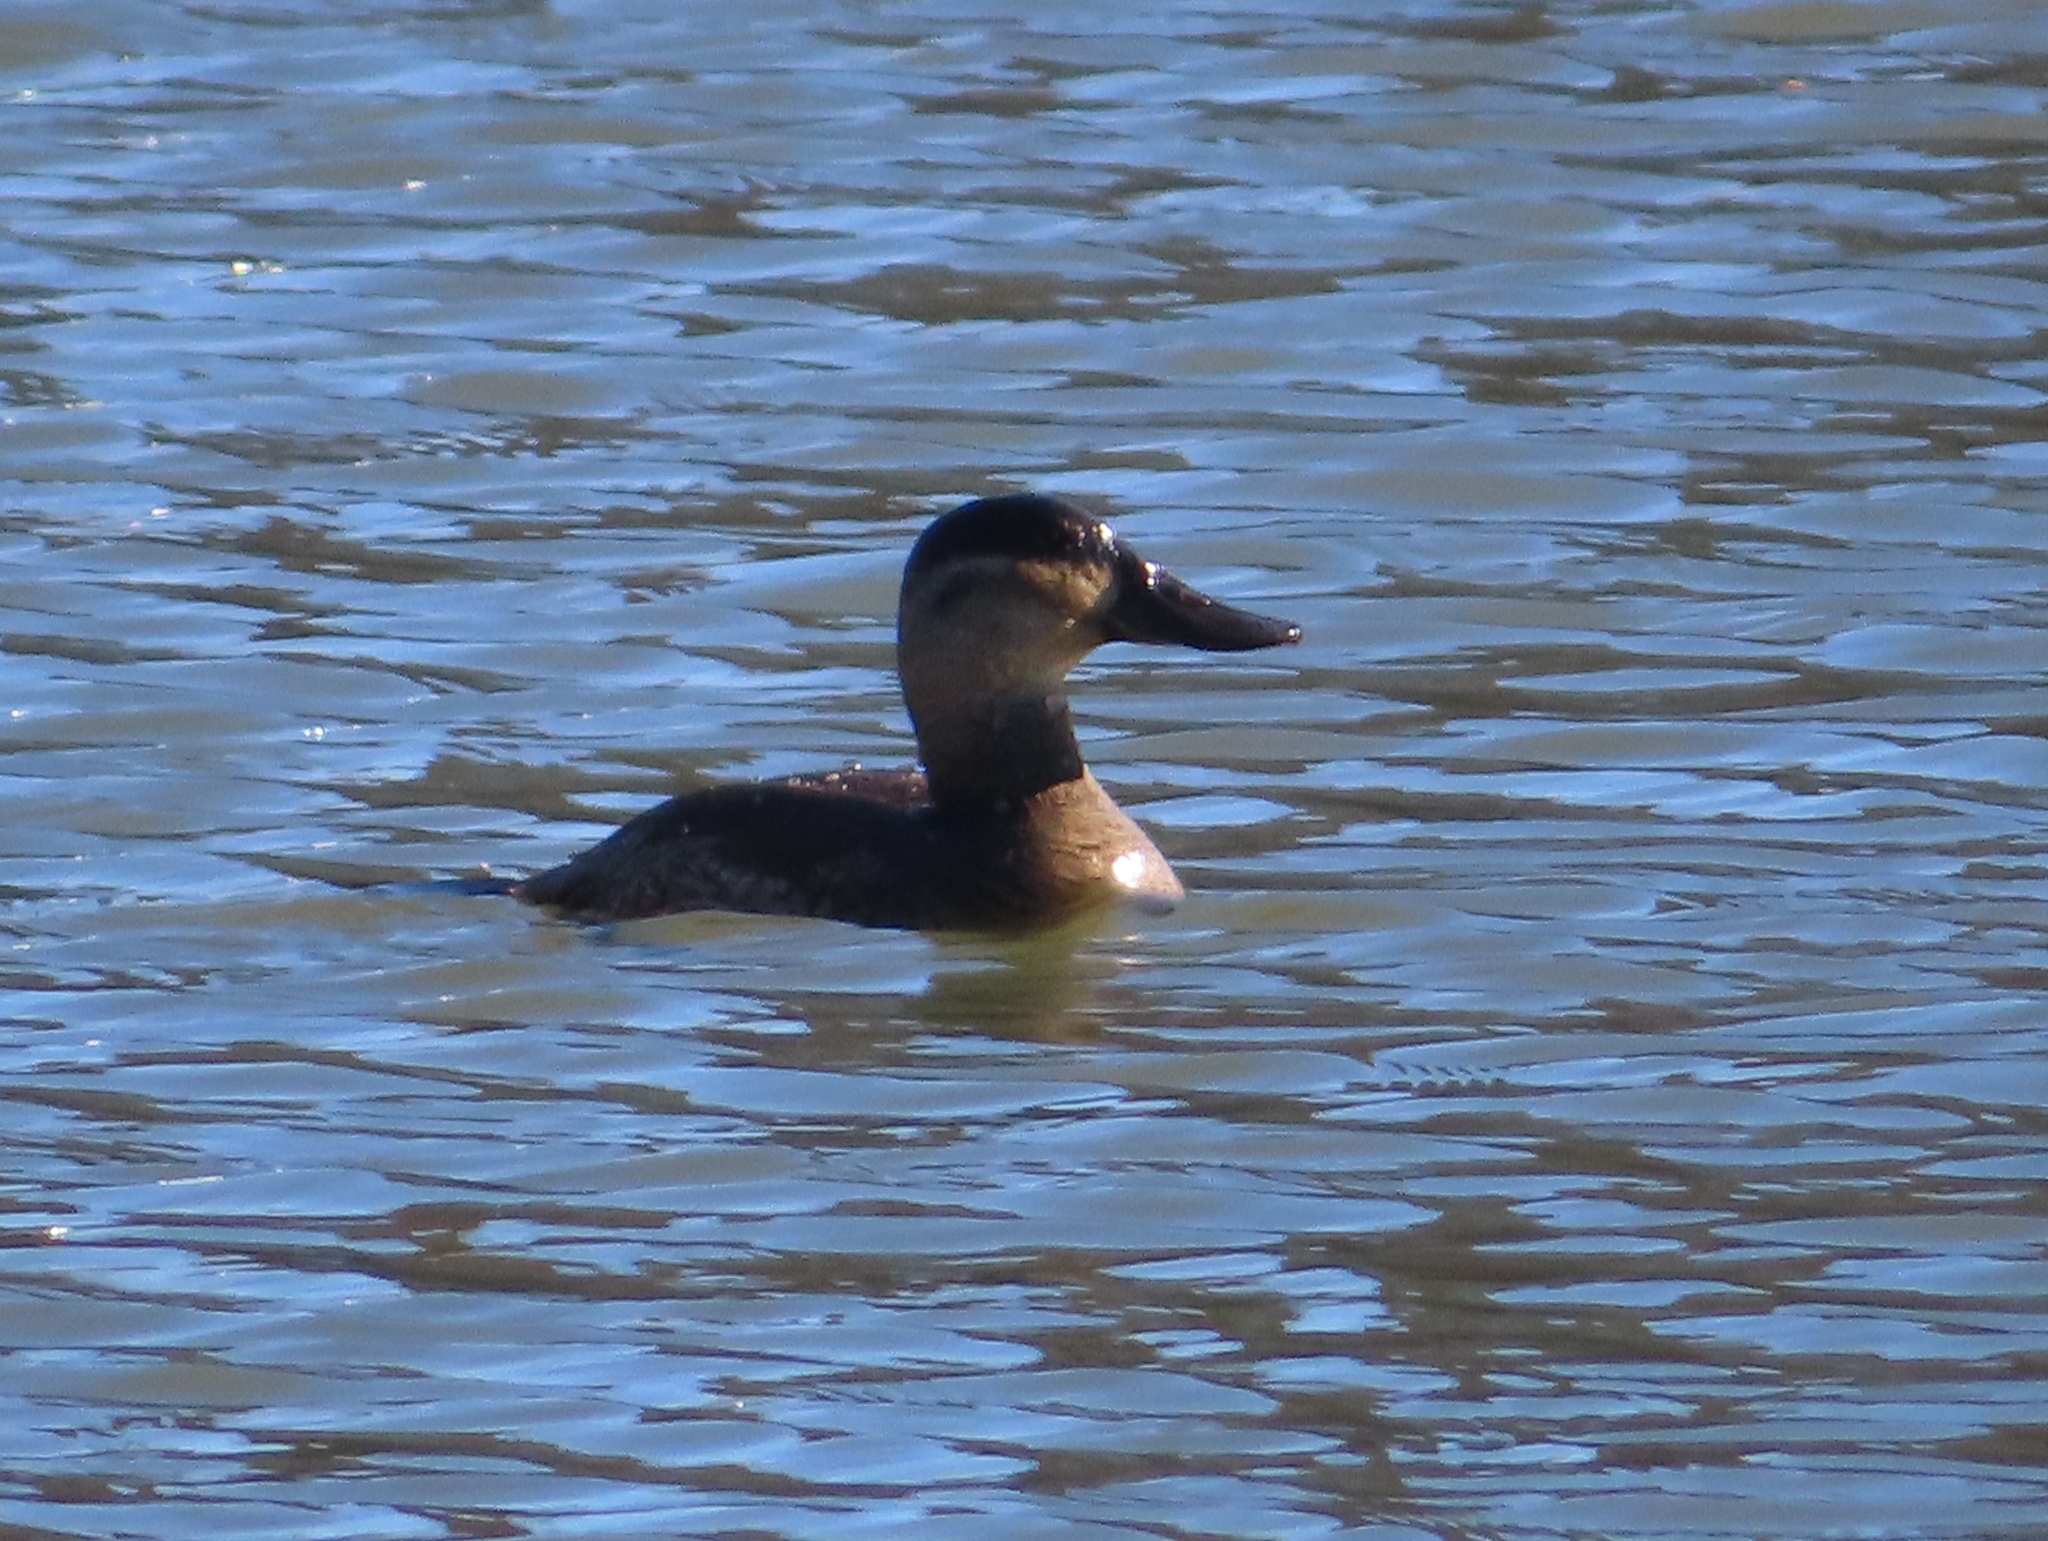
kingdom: Animalia
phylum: Chordata
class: Aves
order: Anseriformes
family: Anatidae
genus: Oxyura
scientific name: Oxyura jamaicensis
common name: Ruddy duck
